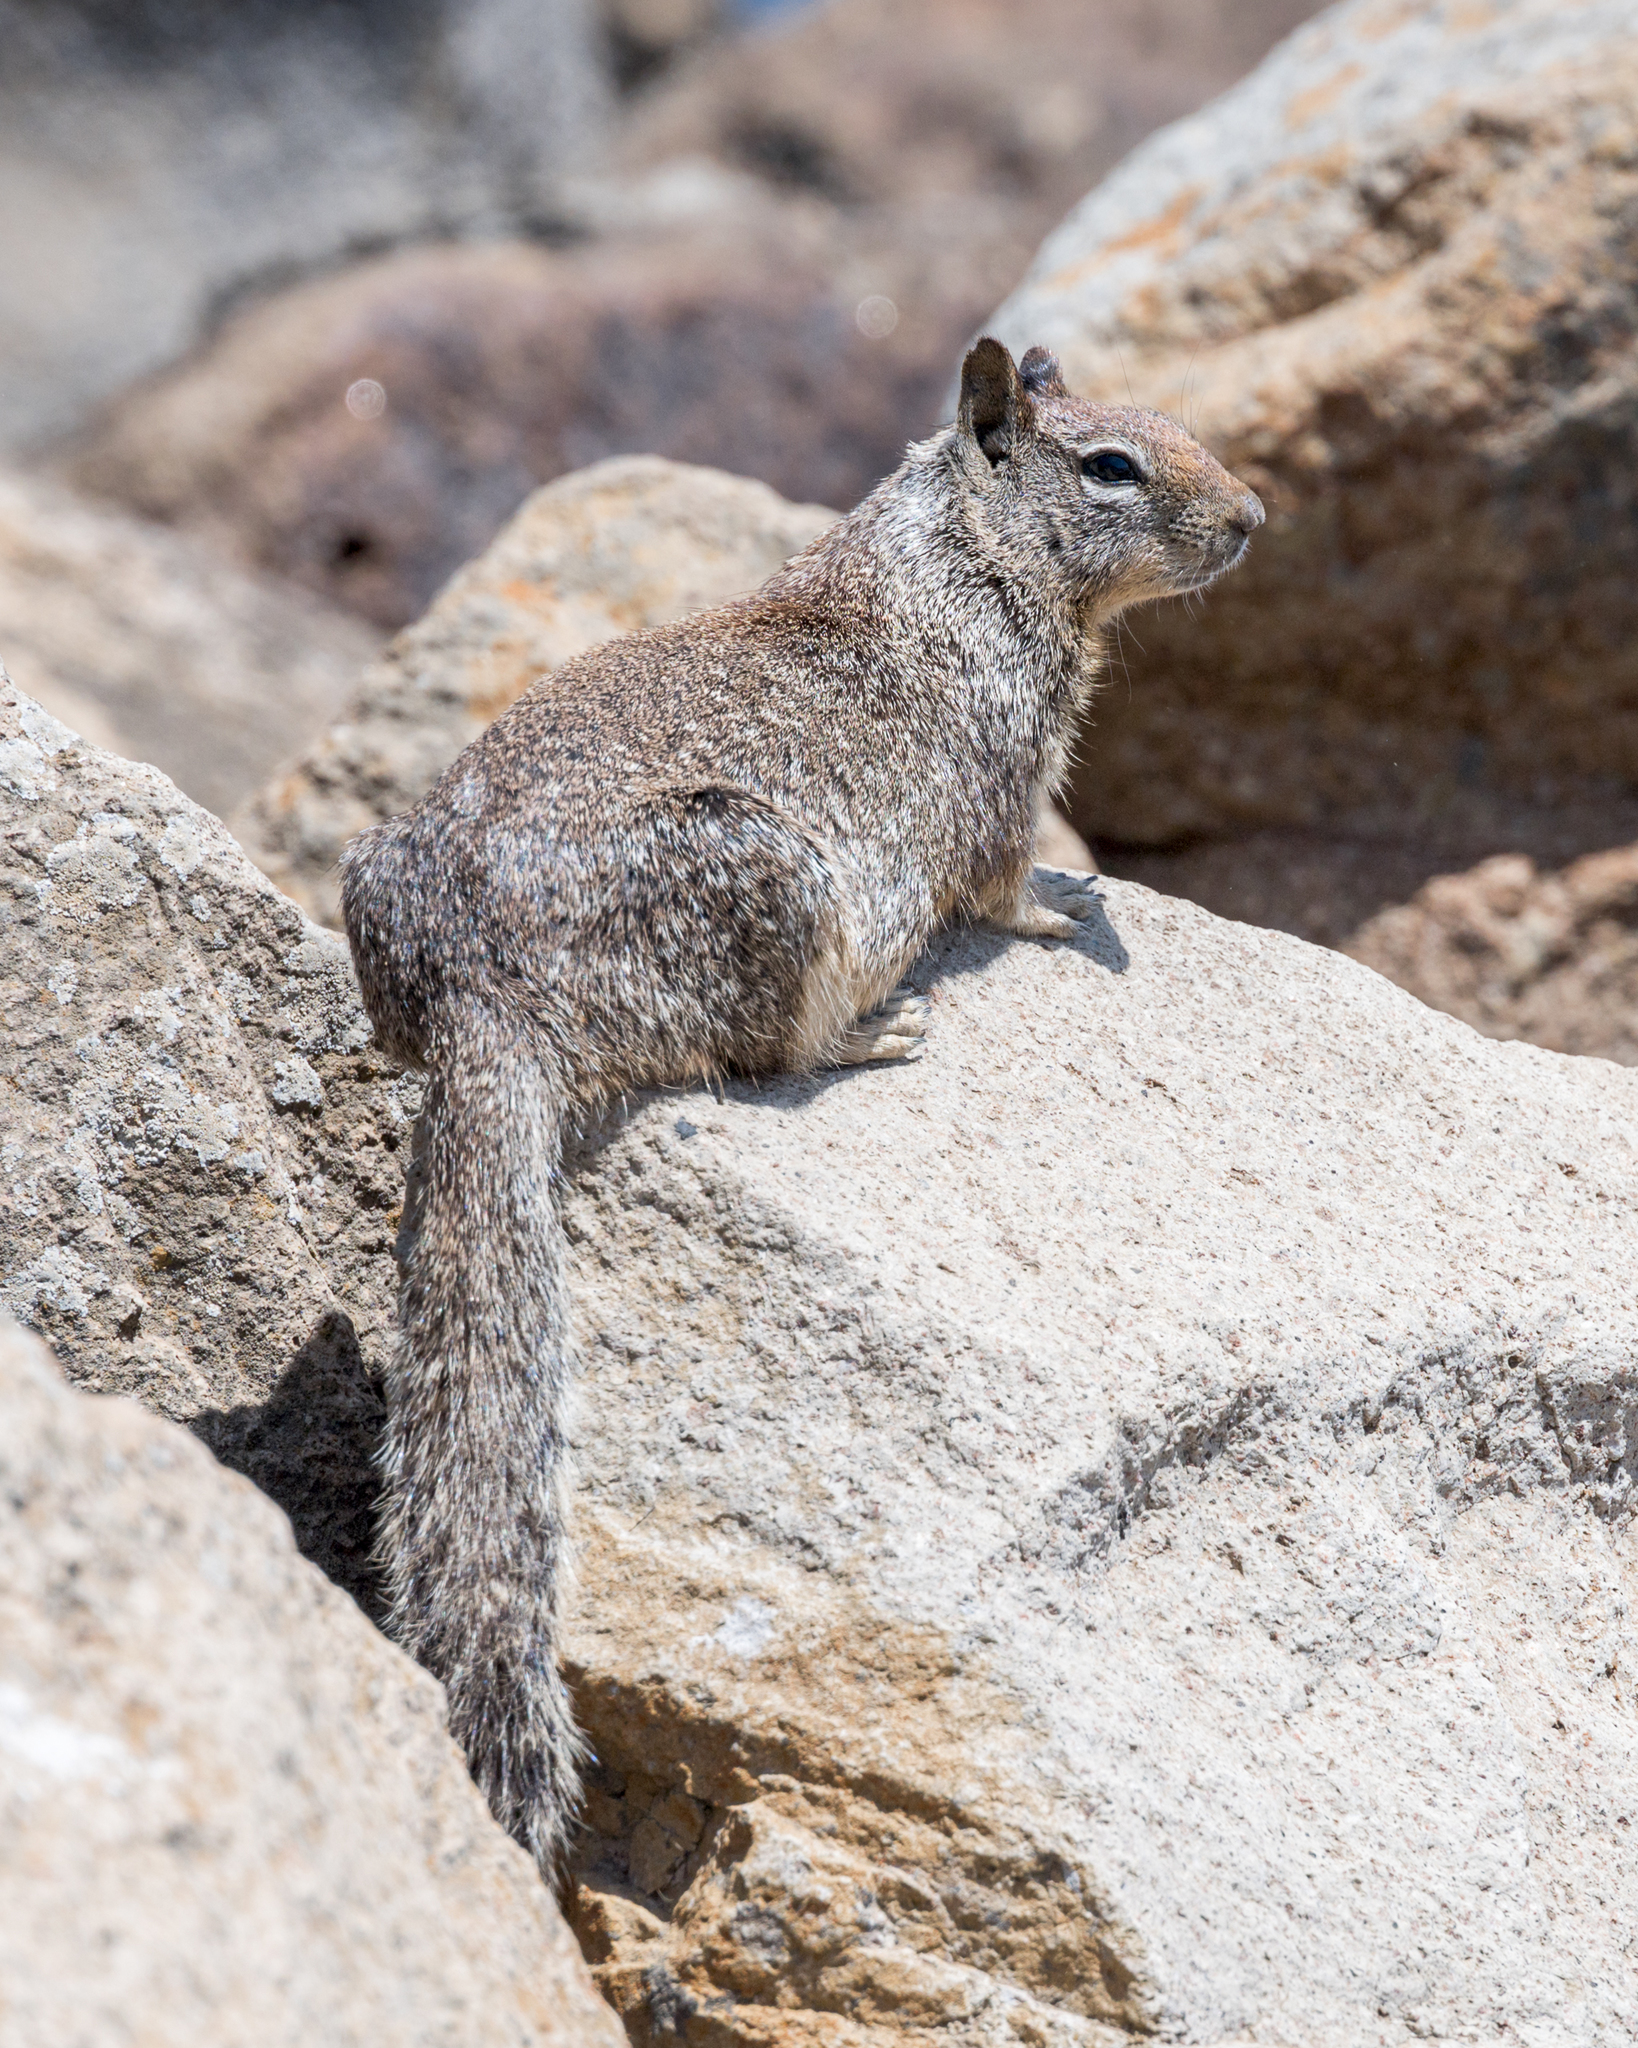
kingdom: Animalia
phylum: Chordata
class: Mammalia
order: Rodentia
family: Sciuridae
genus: Otospermophilus
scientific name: Otospermophilus beecheyi
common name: California ground squirrel
